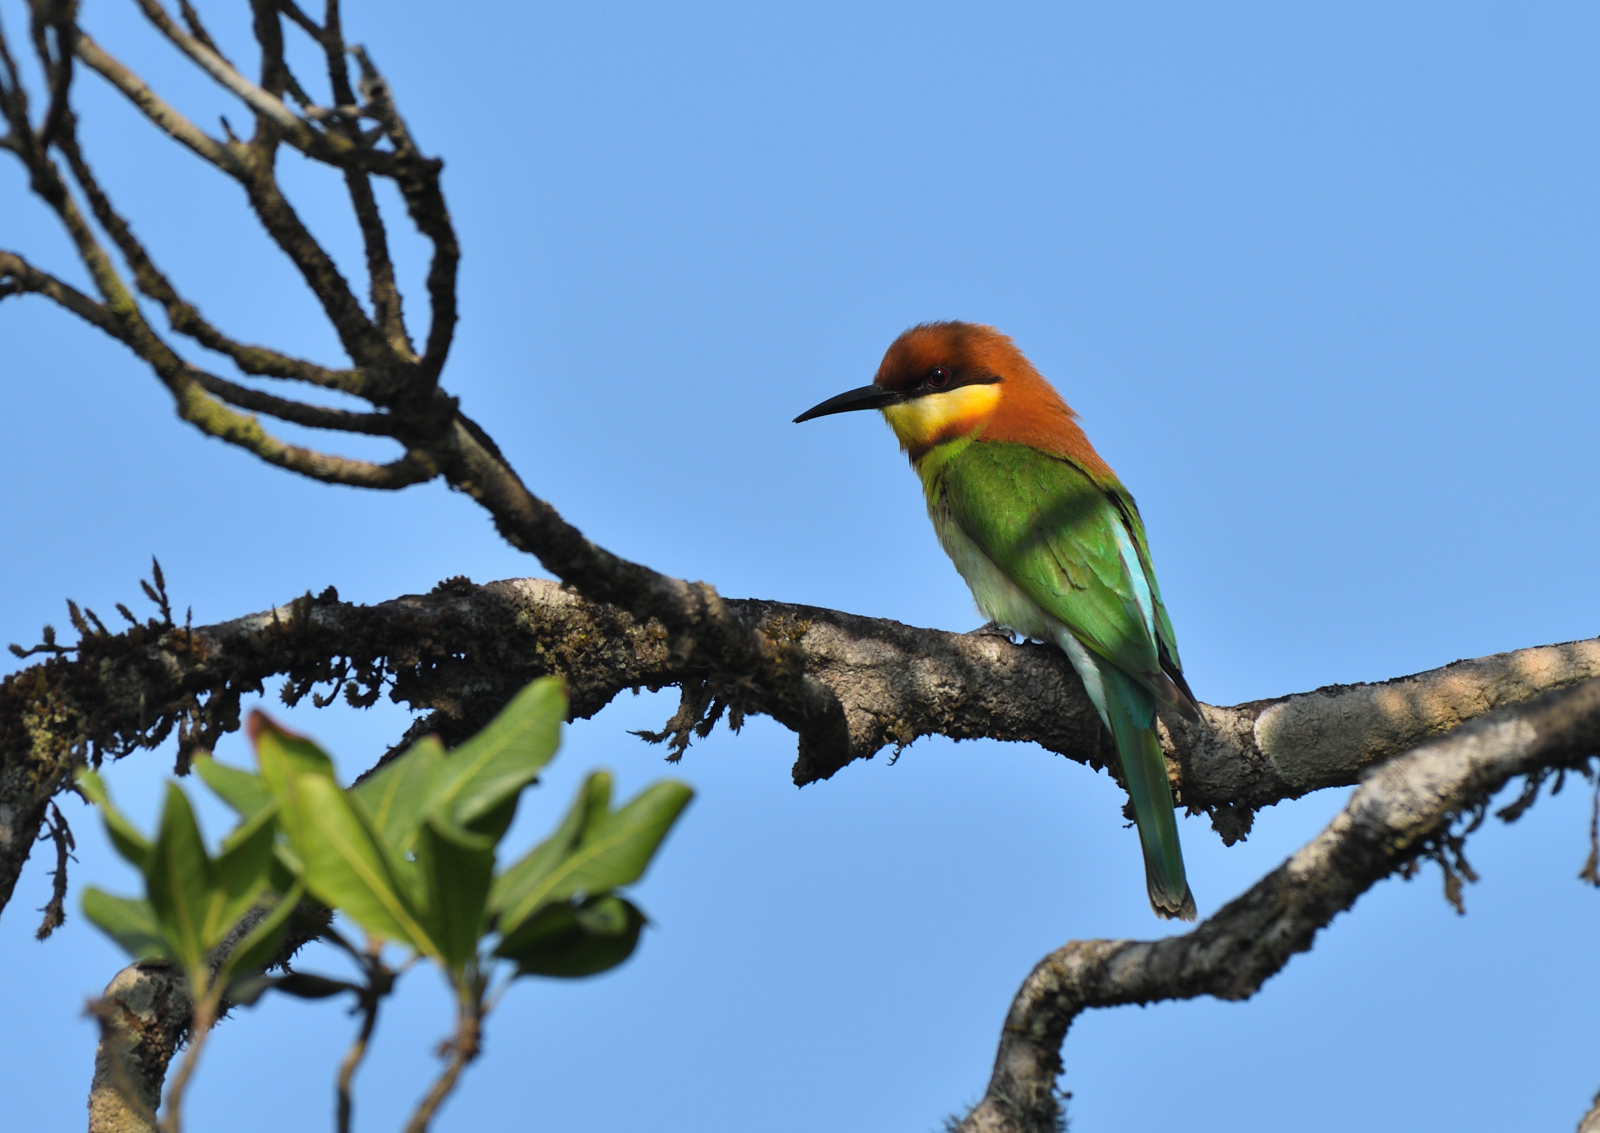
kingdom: Animalia
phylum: Chordata
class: Aves
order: Coraciiformes
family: Meropidae
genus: Merops
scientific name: Merops leschenaulti
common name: Chestnut-headed bee-eater
